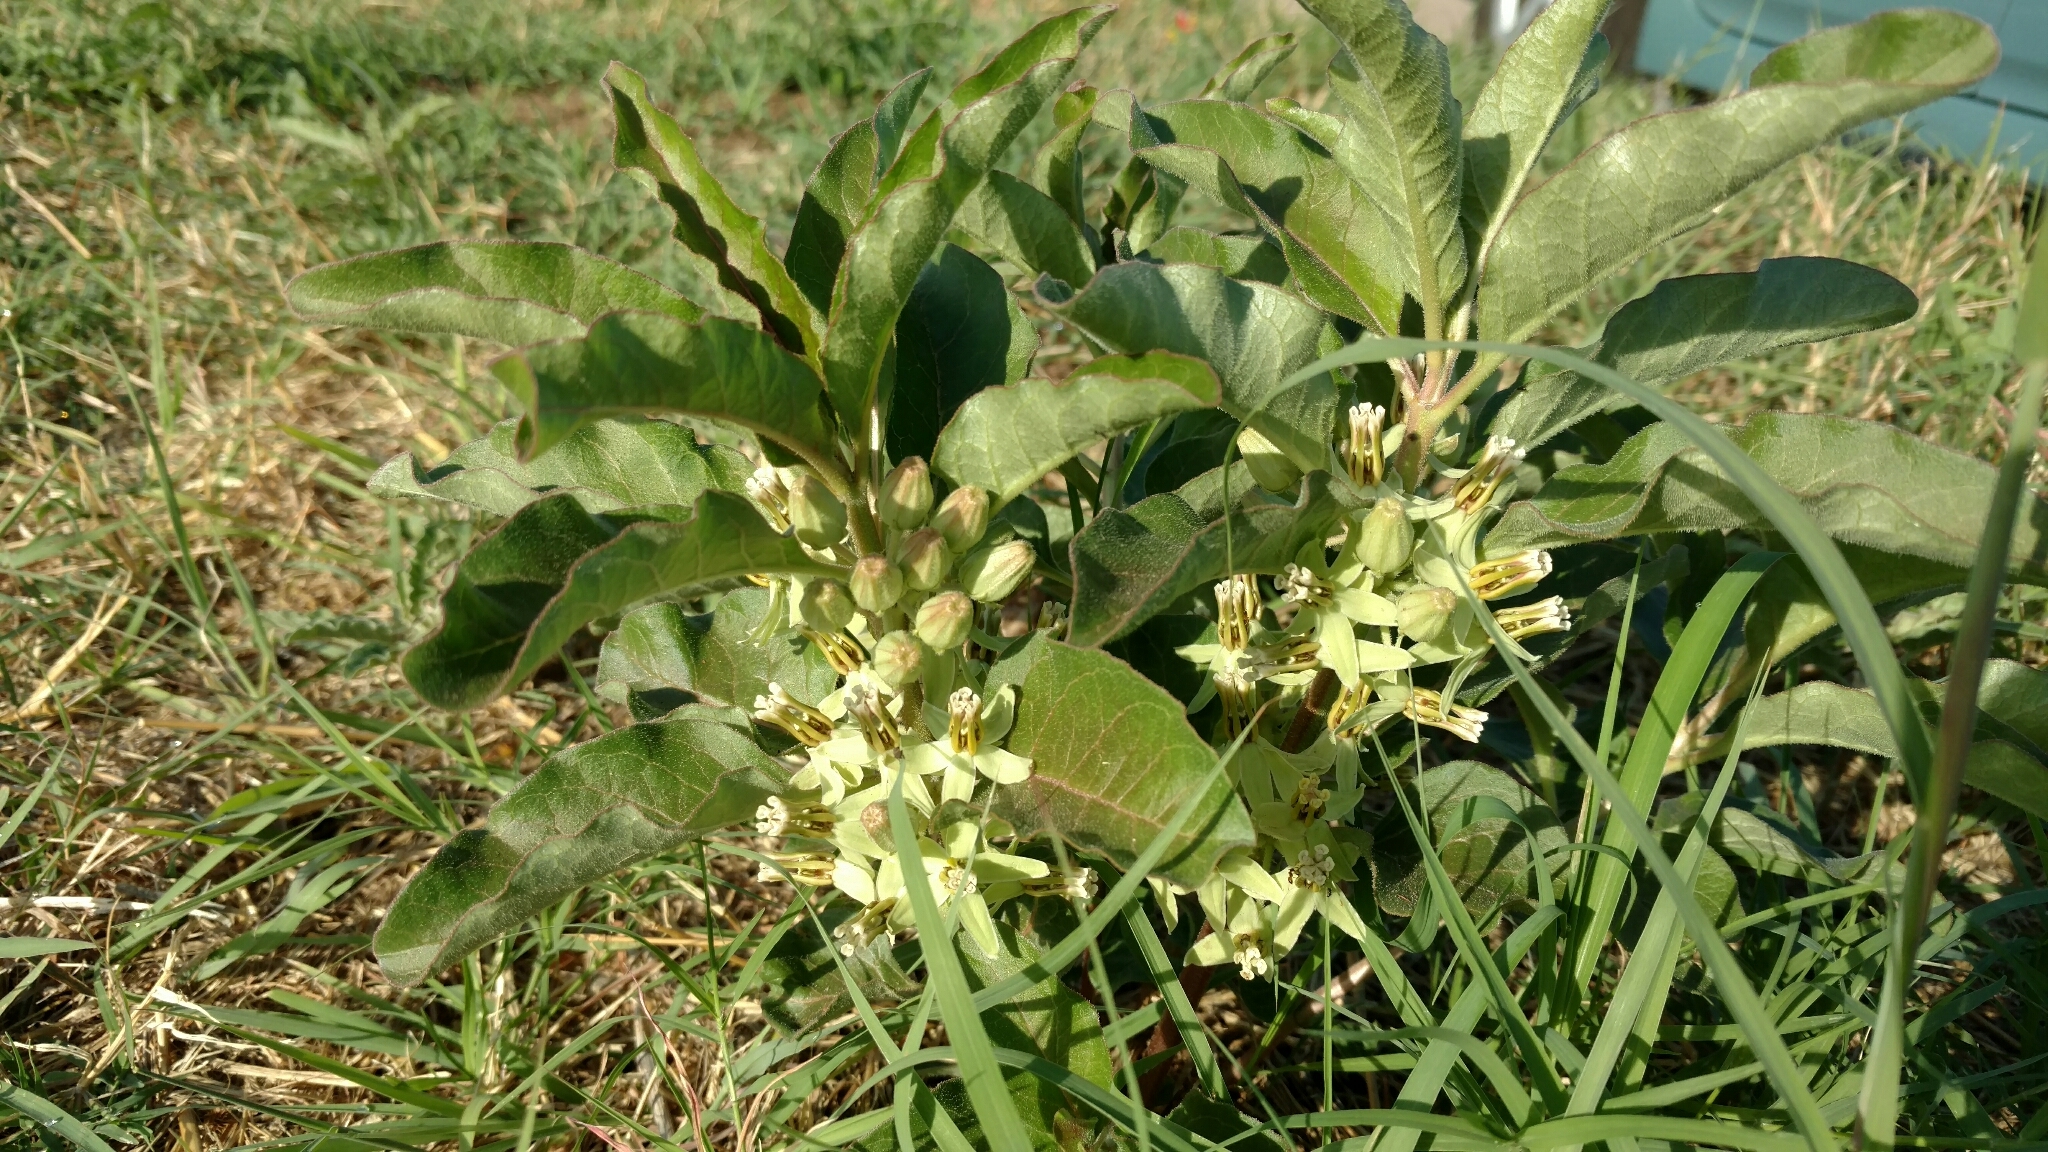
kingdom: Plantae
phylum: Tracheophyta
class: Magnoliopsida
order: Gentianales
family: Apocynaceae
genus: Asclepias
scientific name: Asclepias oenotheroides
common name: Zizotes milkweed
